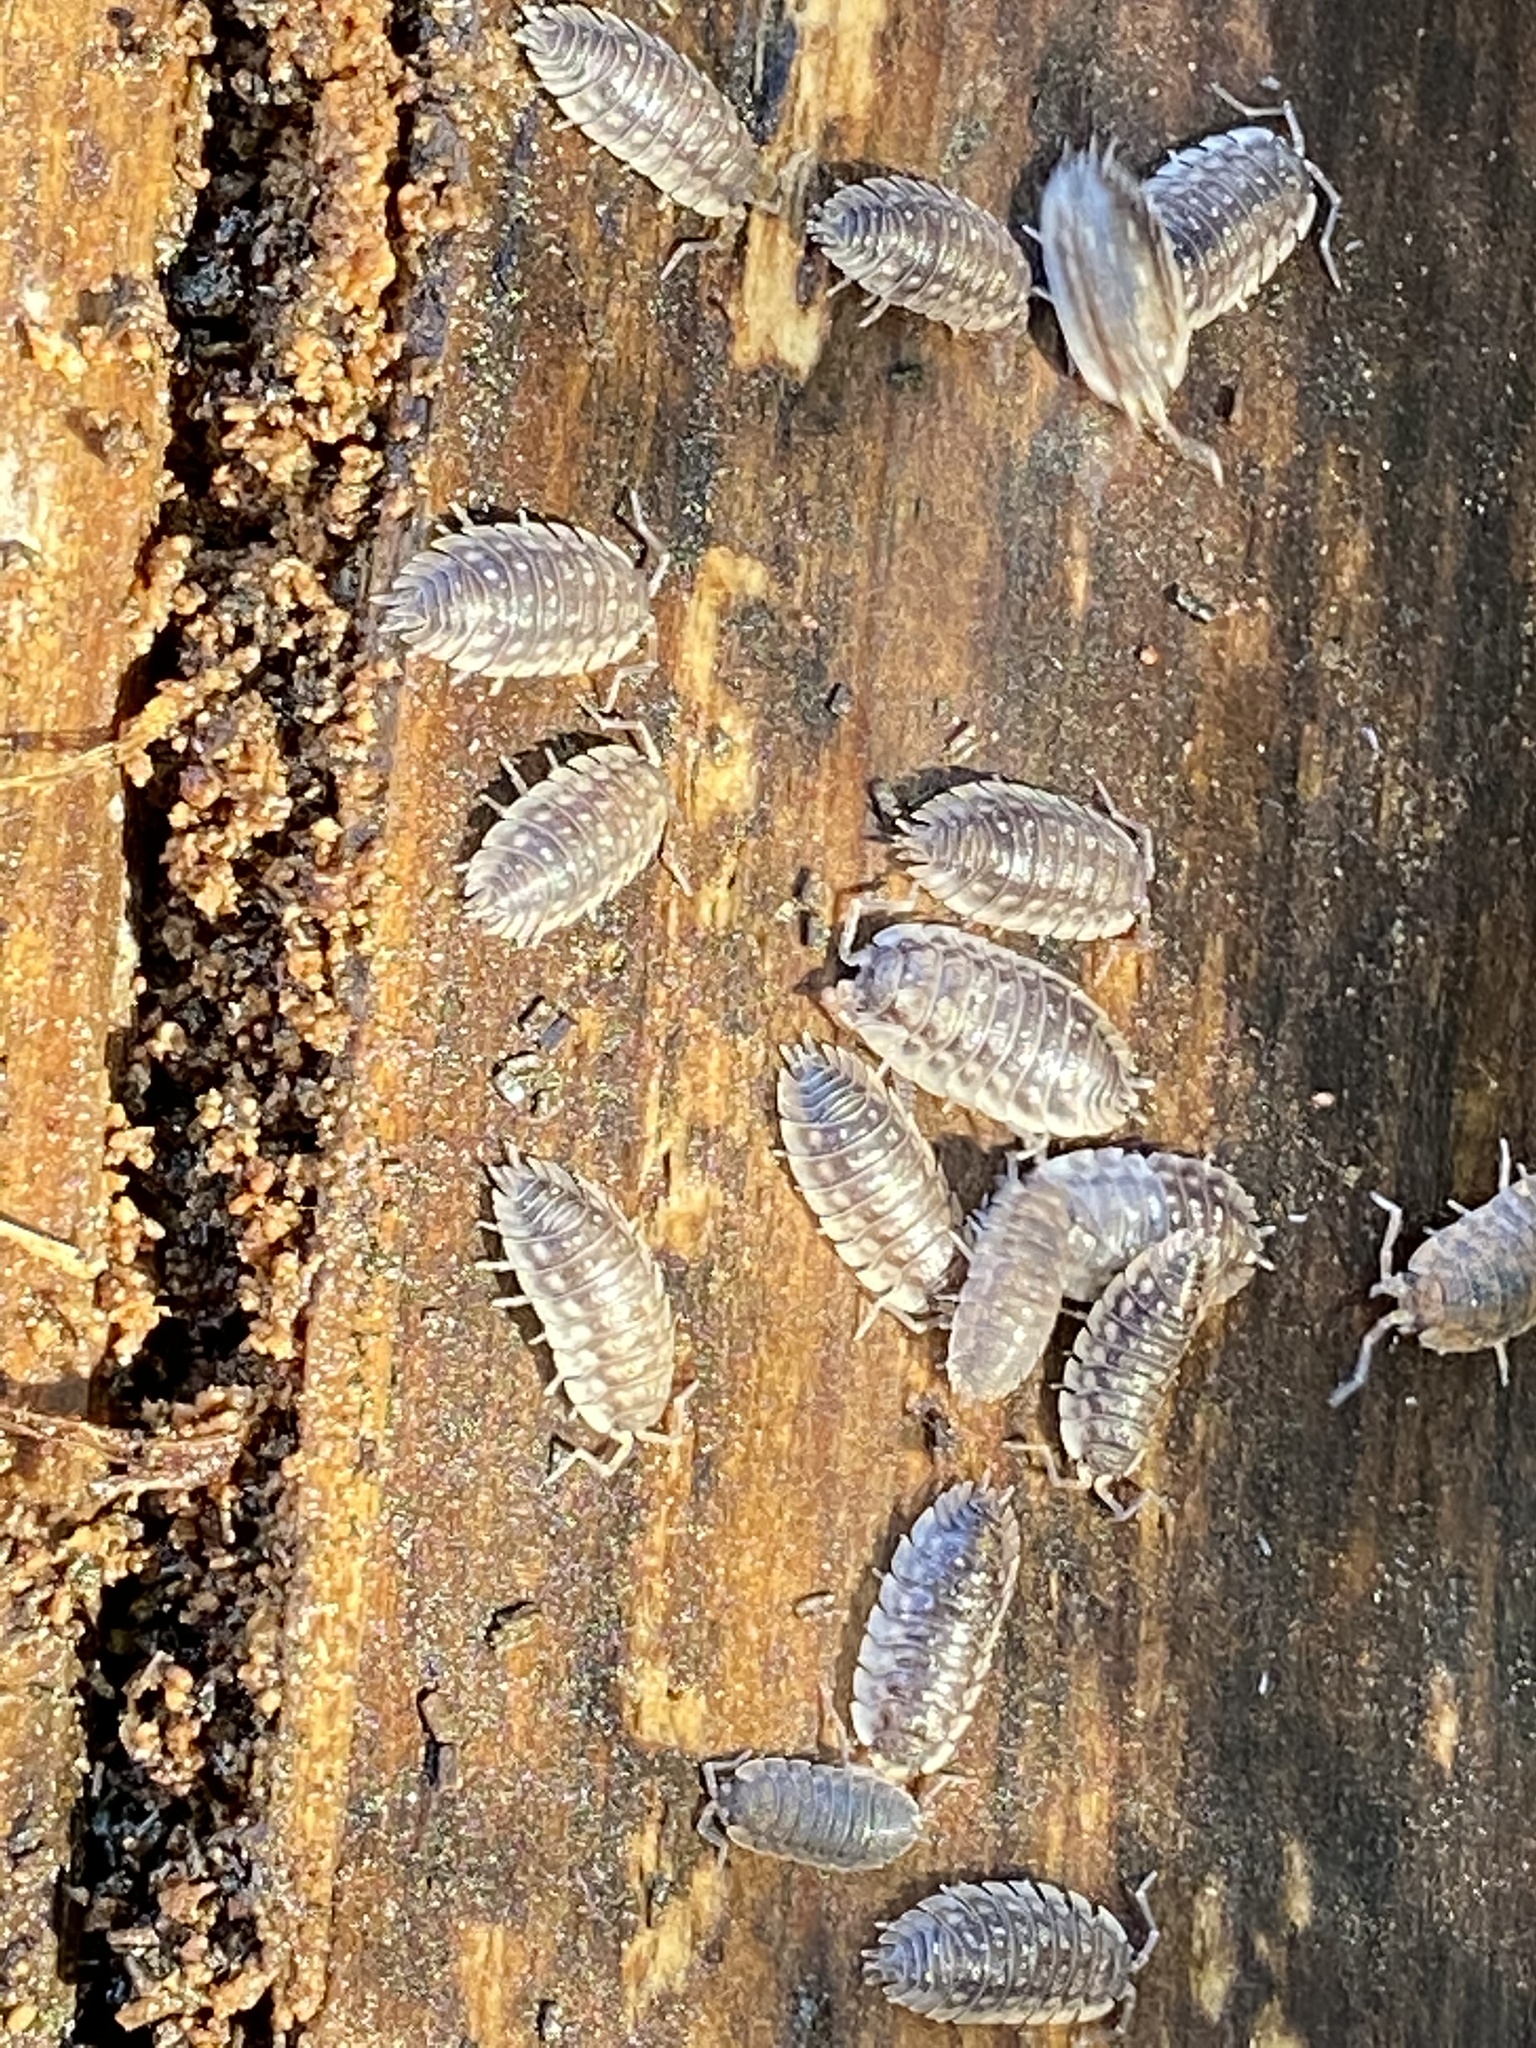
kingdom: Animalia
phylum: Arthropoda
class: Malacostraca
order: Isopoda
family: Oniscidae
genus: Oniscus
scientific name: Oniscus asellus
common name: Common shiny woodlouse
